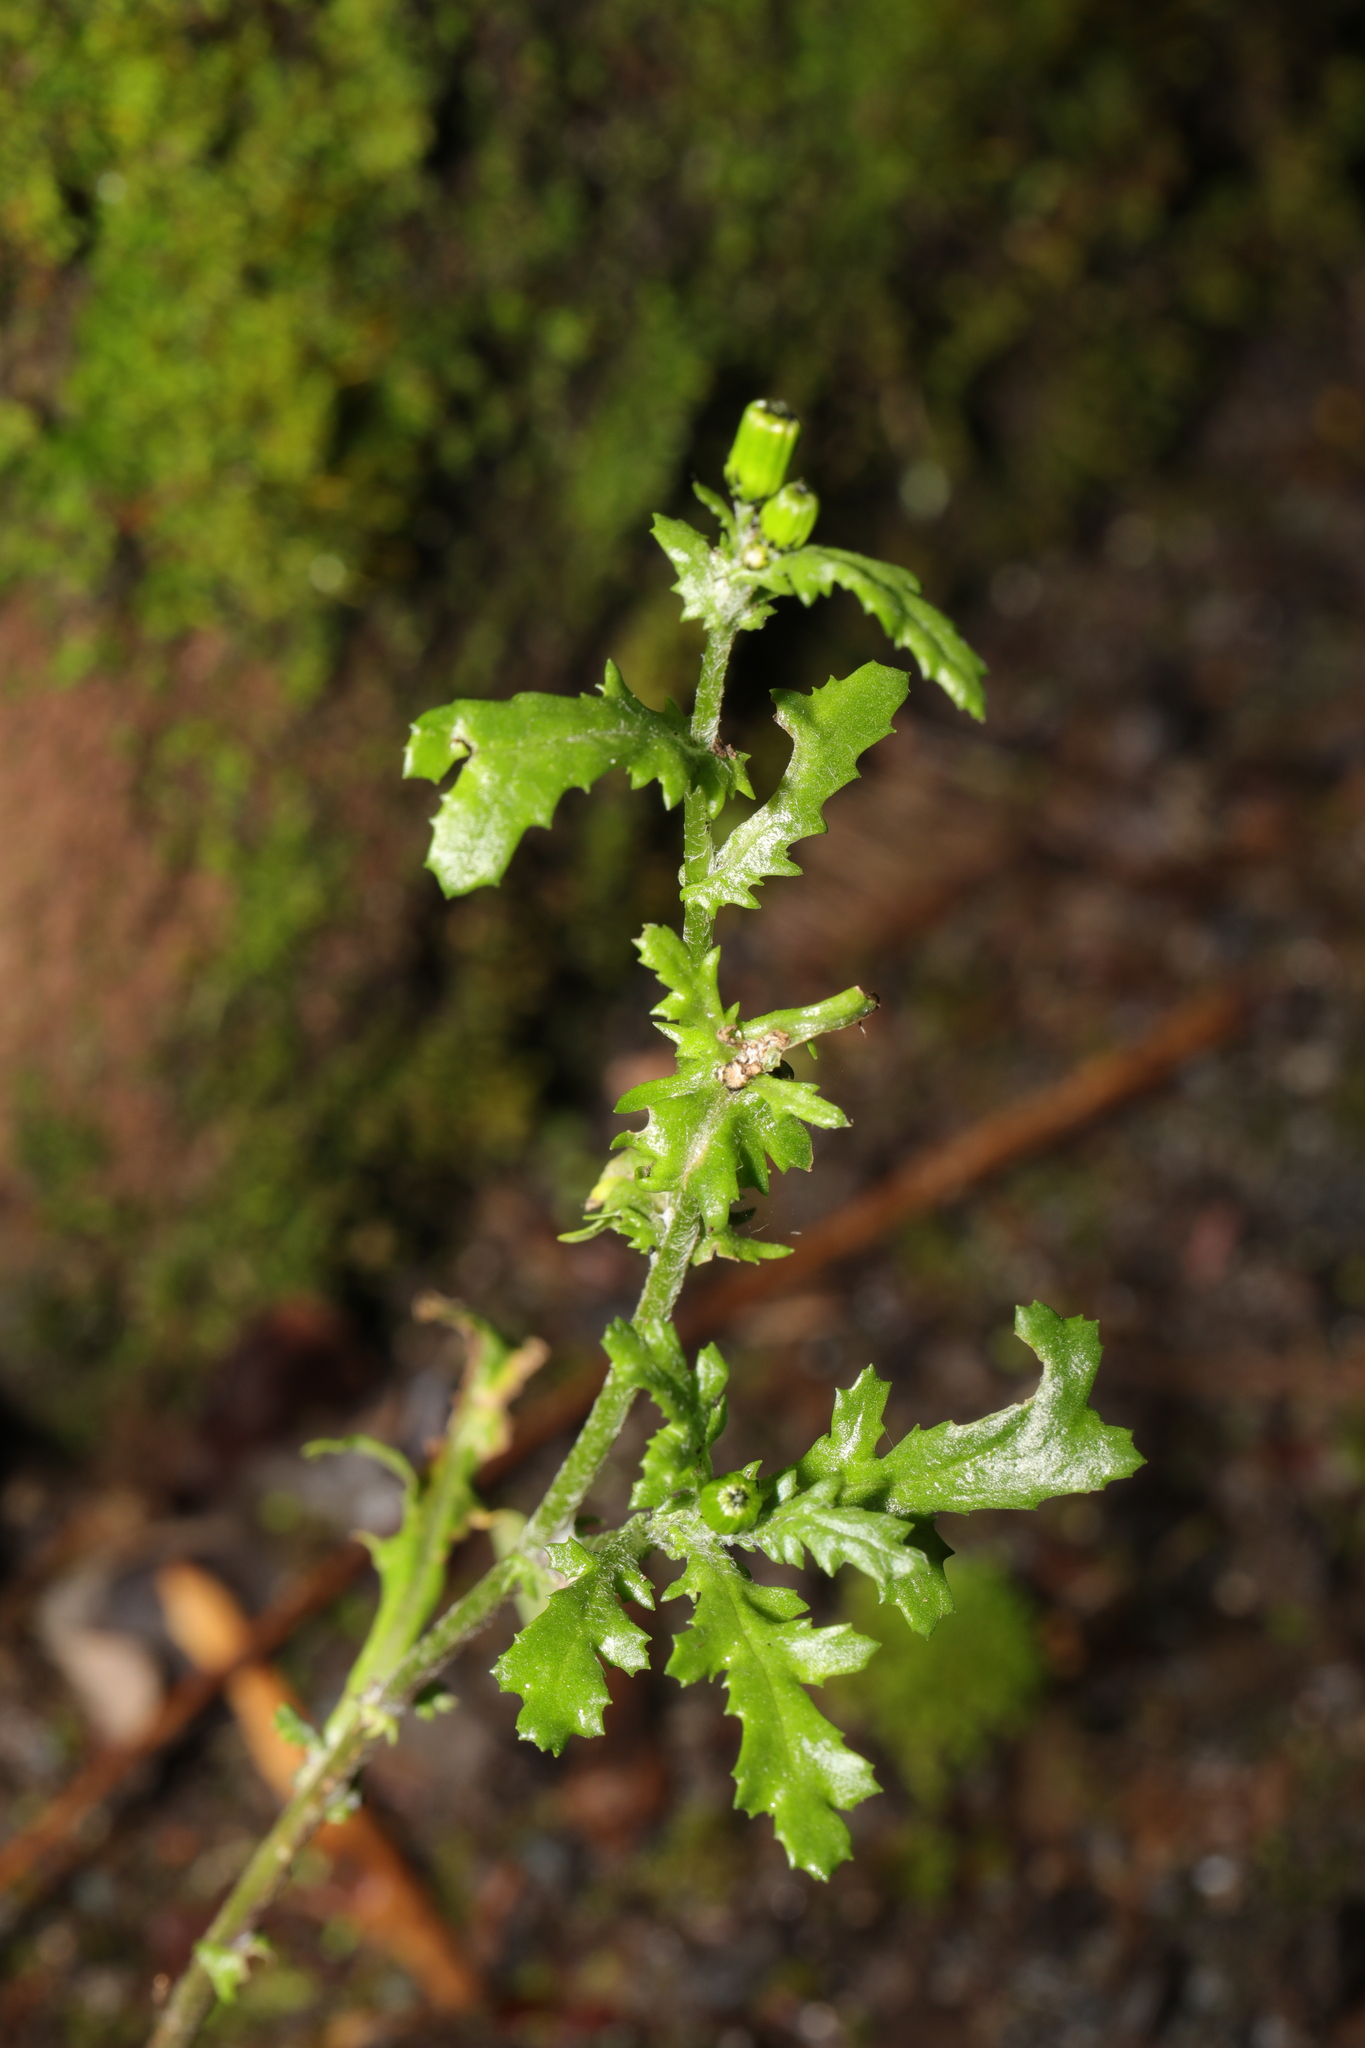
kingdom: Plantae
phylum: Tracheophyta
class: Magnoliopsida
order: Asterales
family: Asteraceae
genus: Senecio
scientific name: Senecio vulgaris
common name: Old-man-in-the-spring
